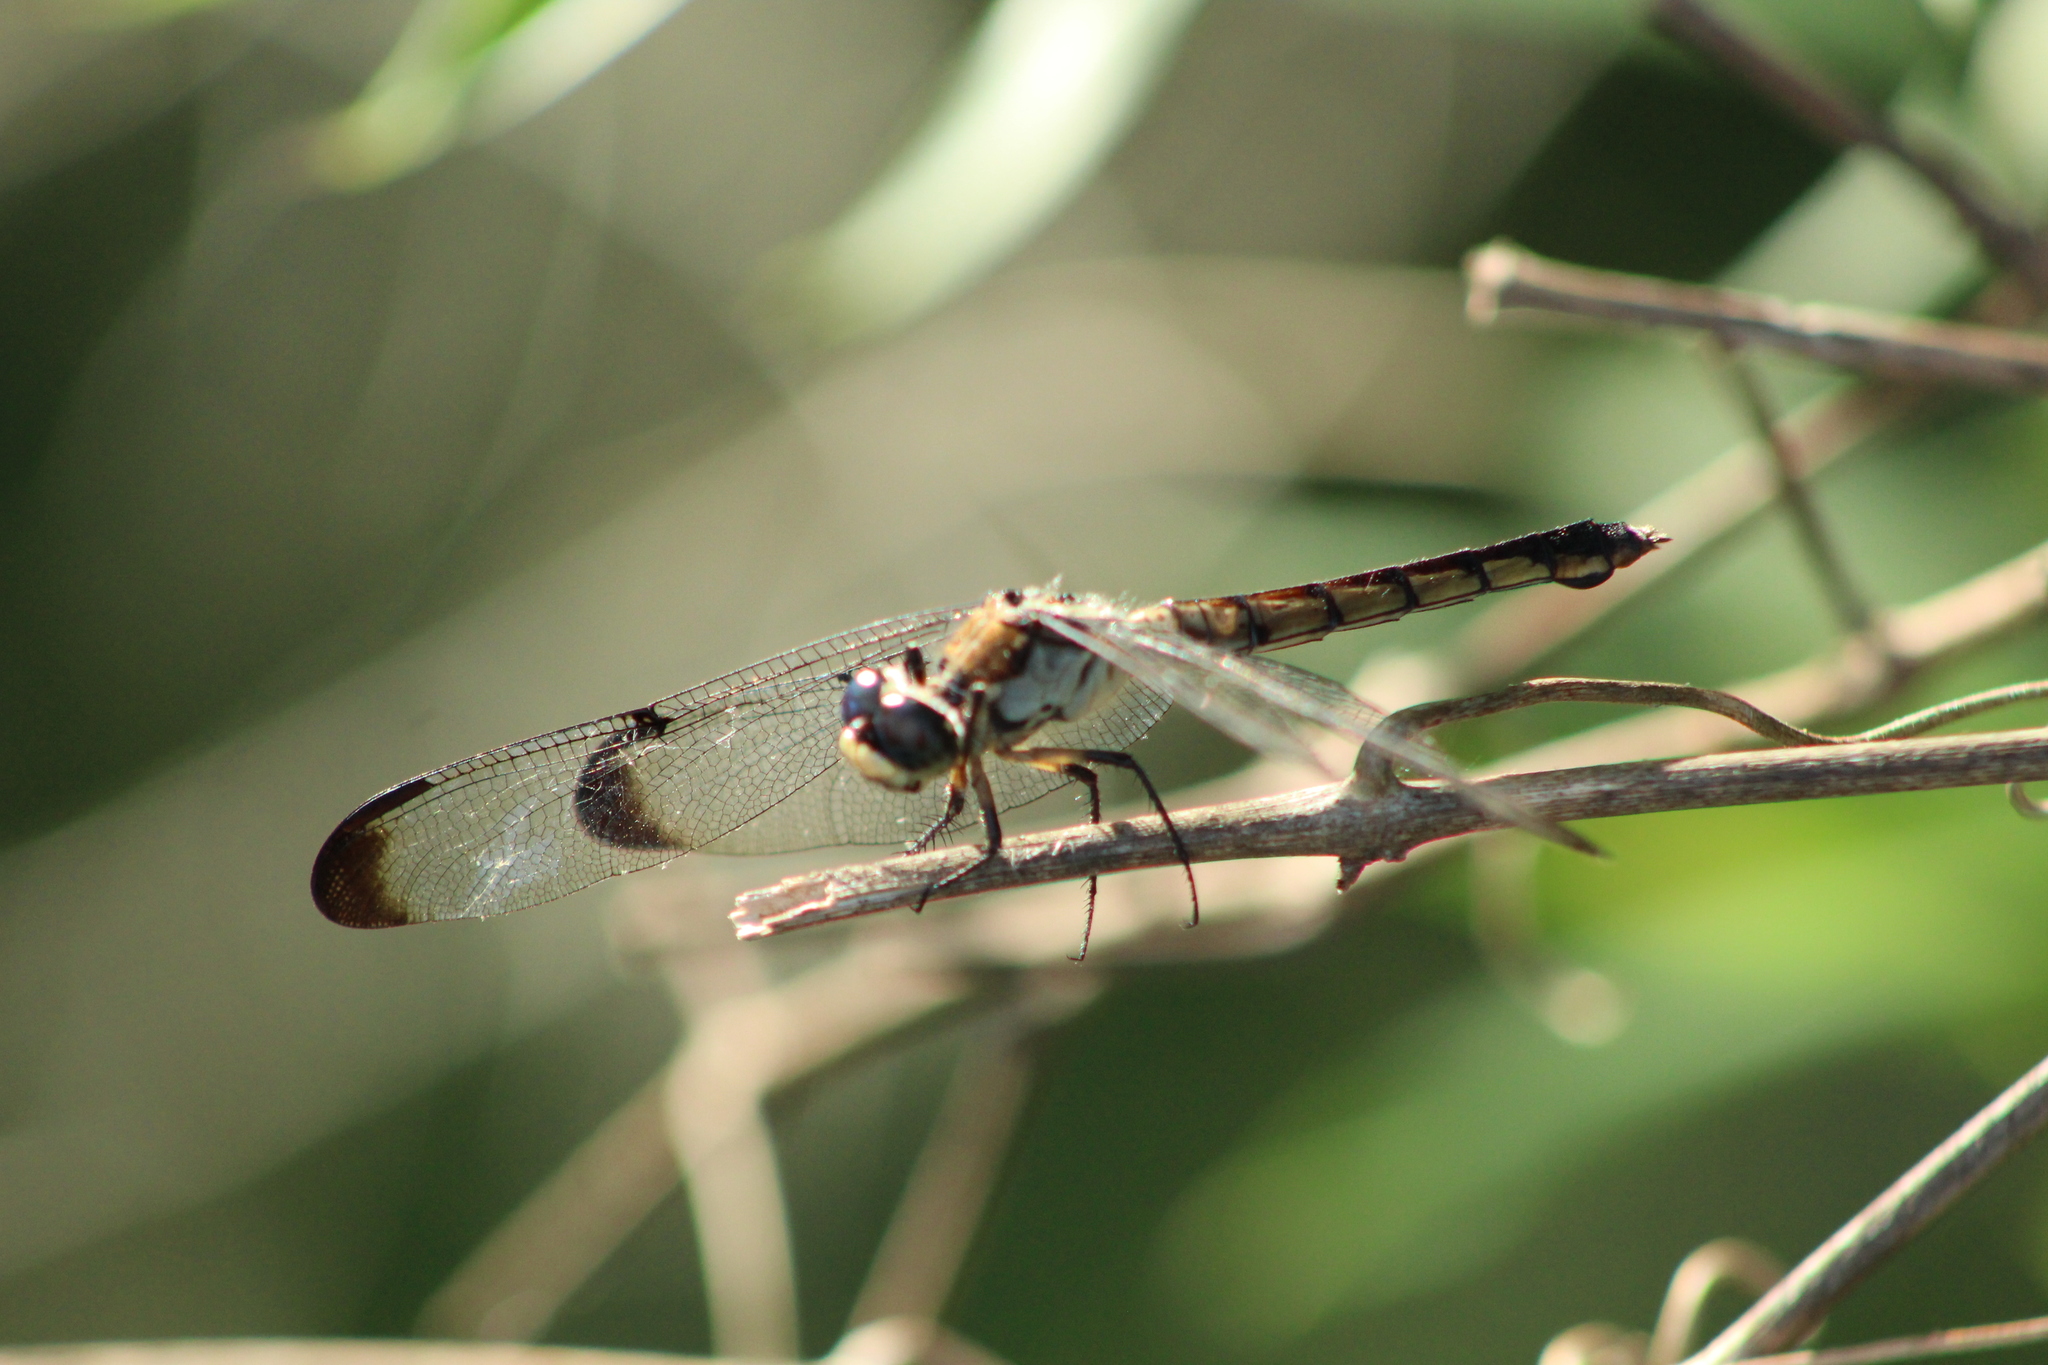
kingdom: Animalia
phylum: Arthropoda
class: Insecta
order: Odonata
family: Libellulidae
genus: Libellula
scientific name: Libellula vibrans
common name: Great blue skimmer
